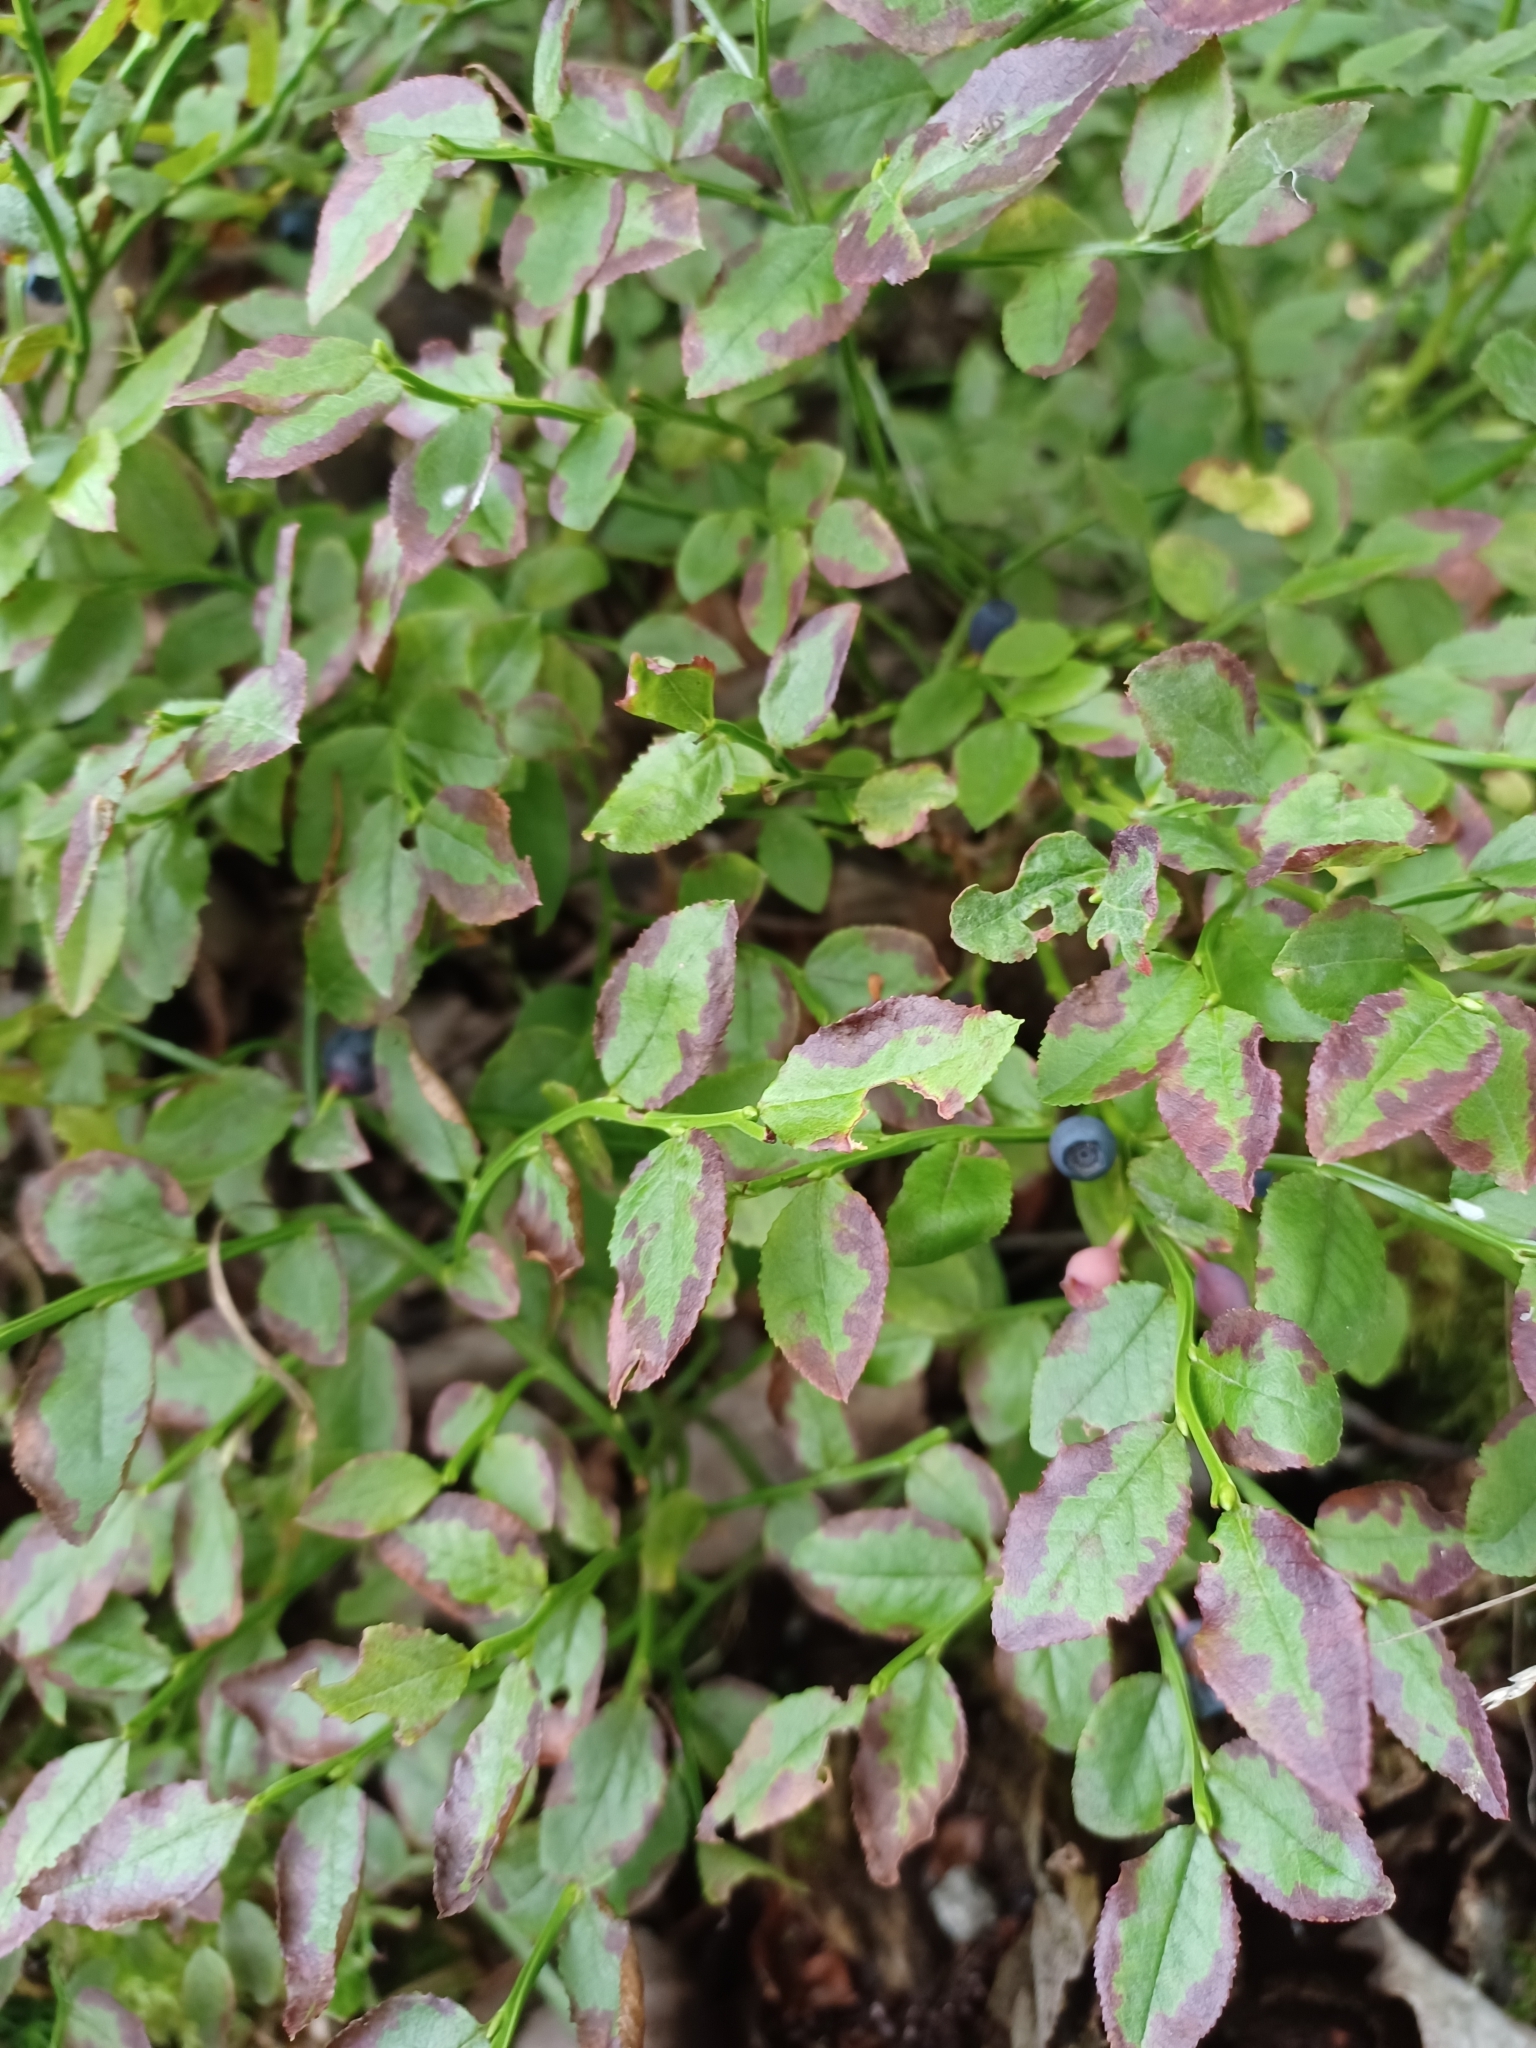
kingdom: Plantae
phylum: Tracheophyta
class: Magnoliopsida
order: Ericales
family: Ericaceae
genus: Vaccinium
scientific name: Vaccinium myrtillus
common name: Bilberry
